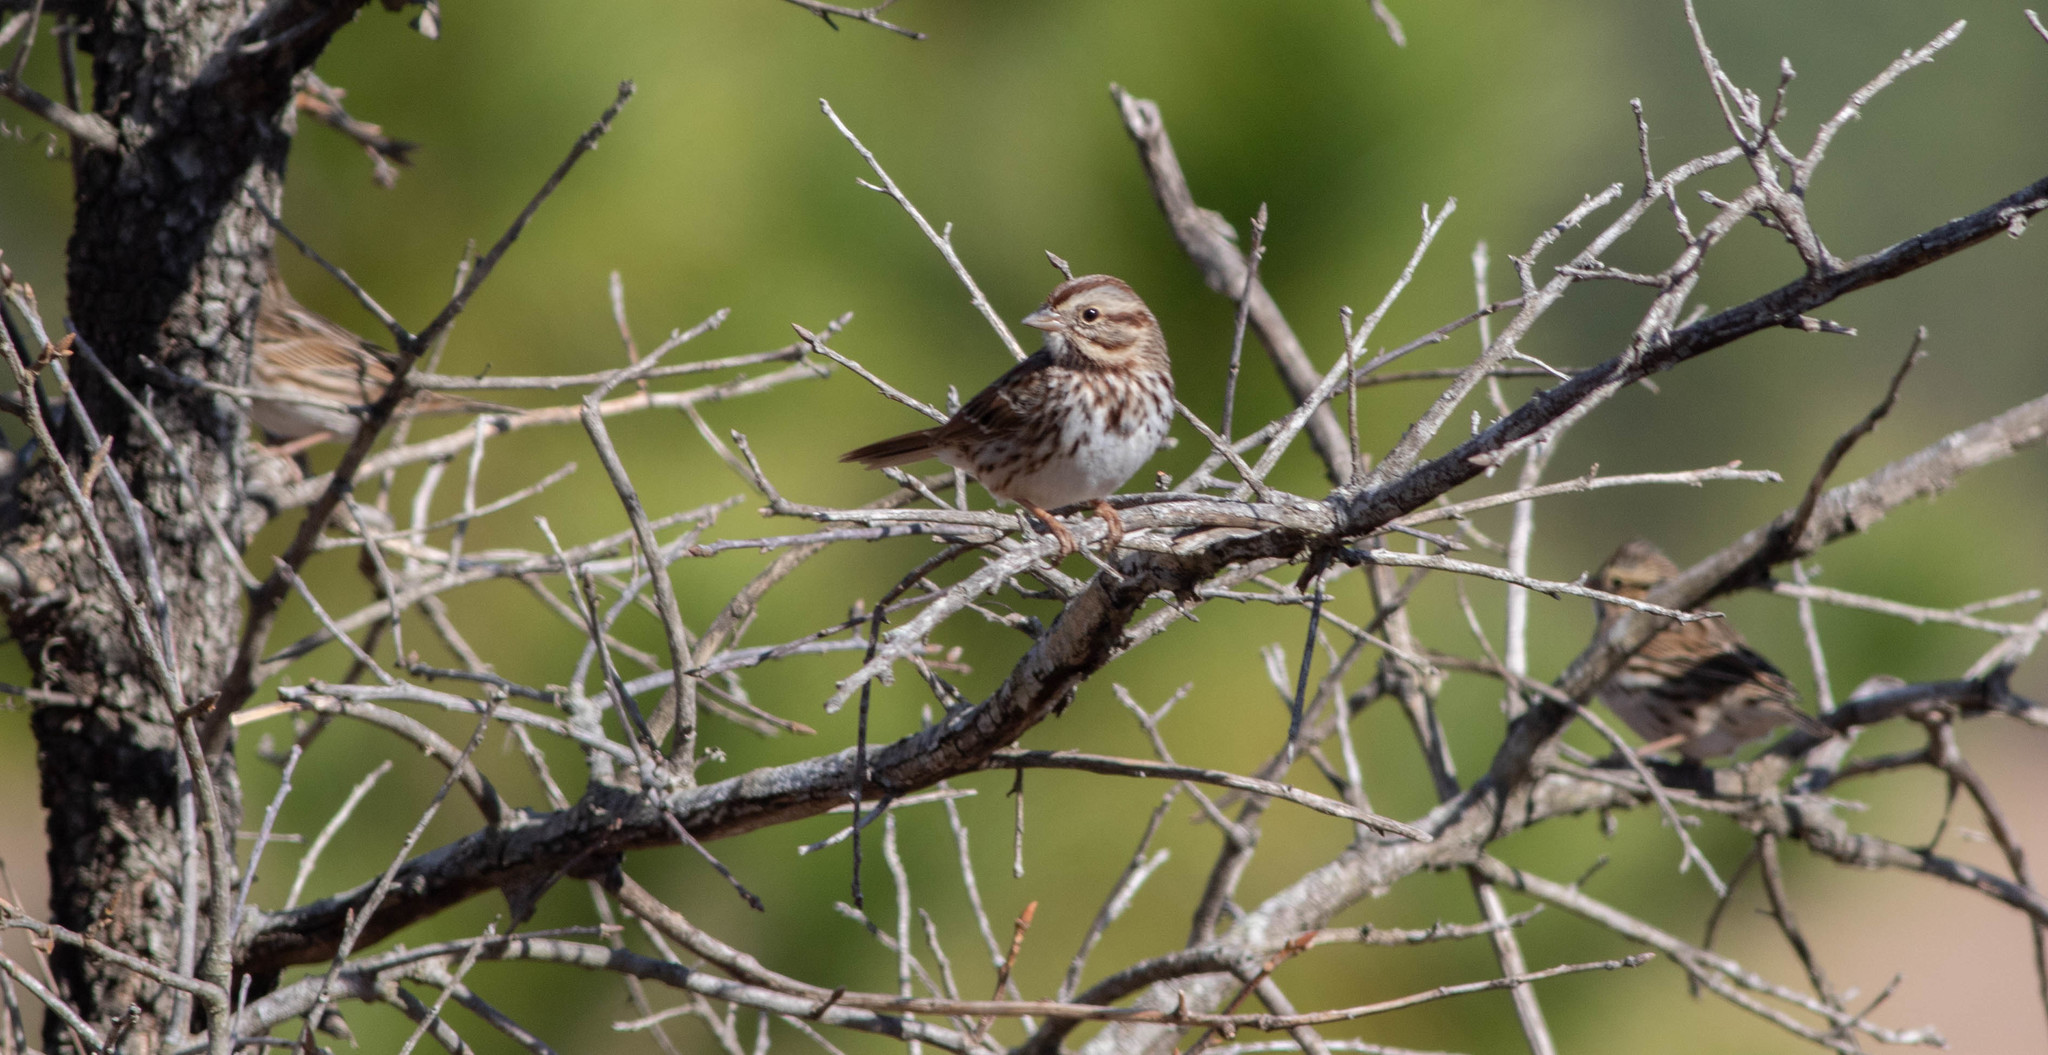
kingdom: Animalia
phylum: Chordata
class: Aves
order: Passeriformes
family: Passerellidae
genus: Melospiza
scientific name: Melospiza melodia
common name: Song sparrow
